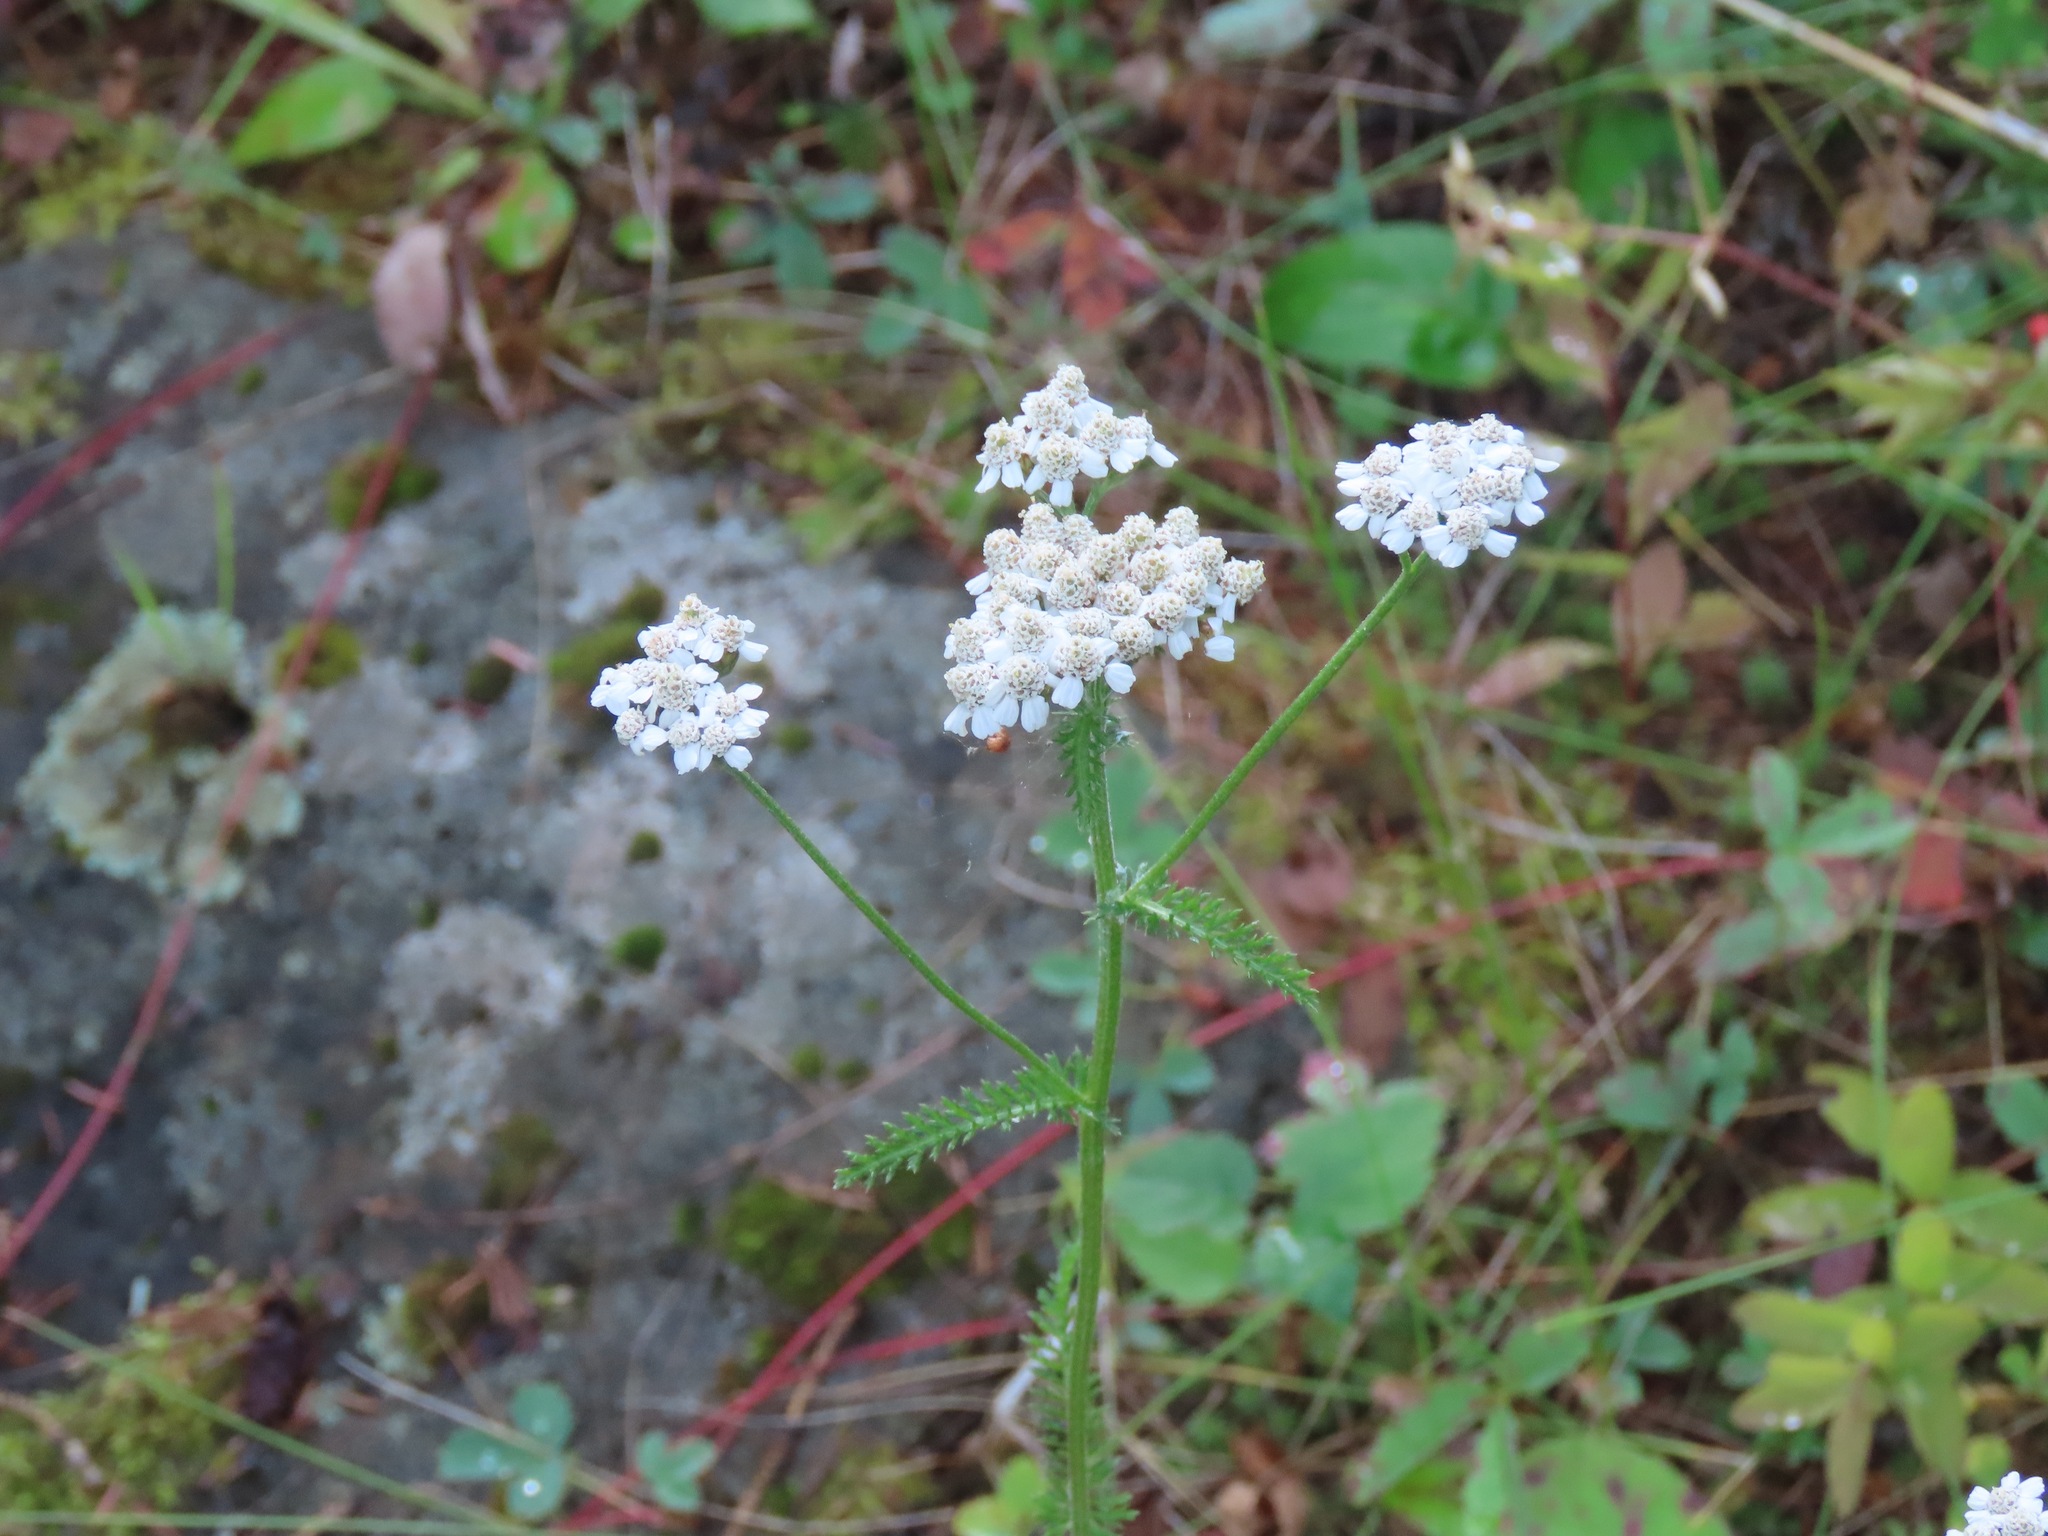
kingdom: Plantae
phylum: Tracheophyta
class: Magnoliopsida
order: Asterales
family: Asteraceae
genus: Achillea
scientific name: Achillea millefolium
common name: Yarrow
